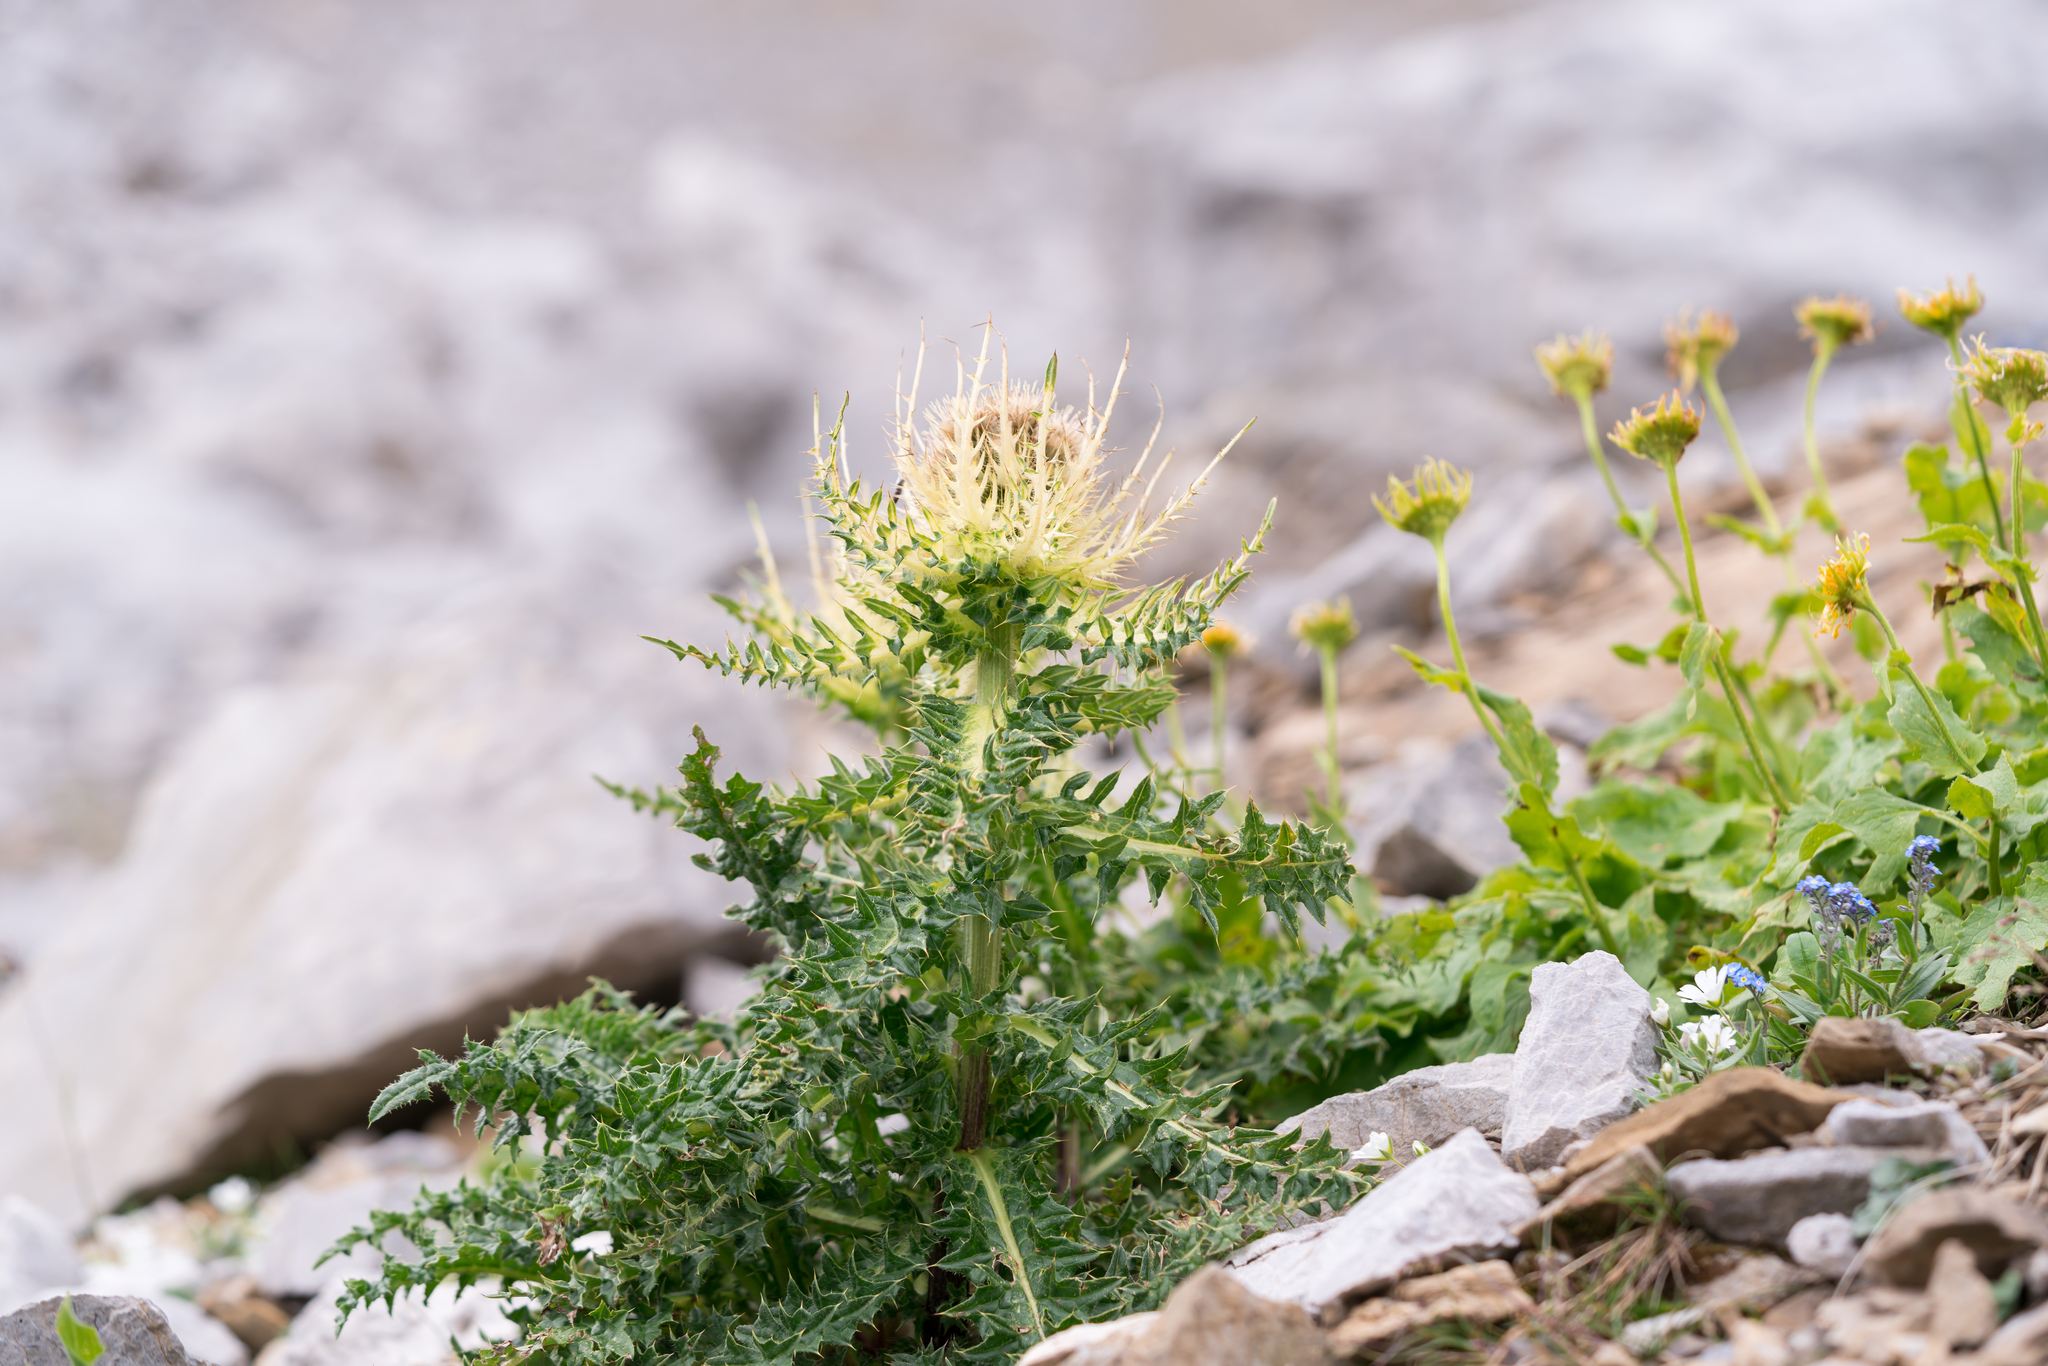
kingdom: Plantae
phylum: Tracheophyta
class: Magnoliopsida
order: Asterales
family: Asteraceae
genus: Cirsium
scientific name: Cirsium spinosissimum
